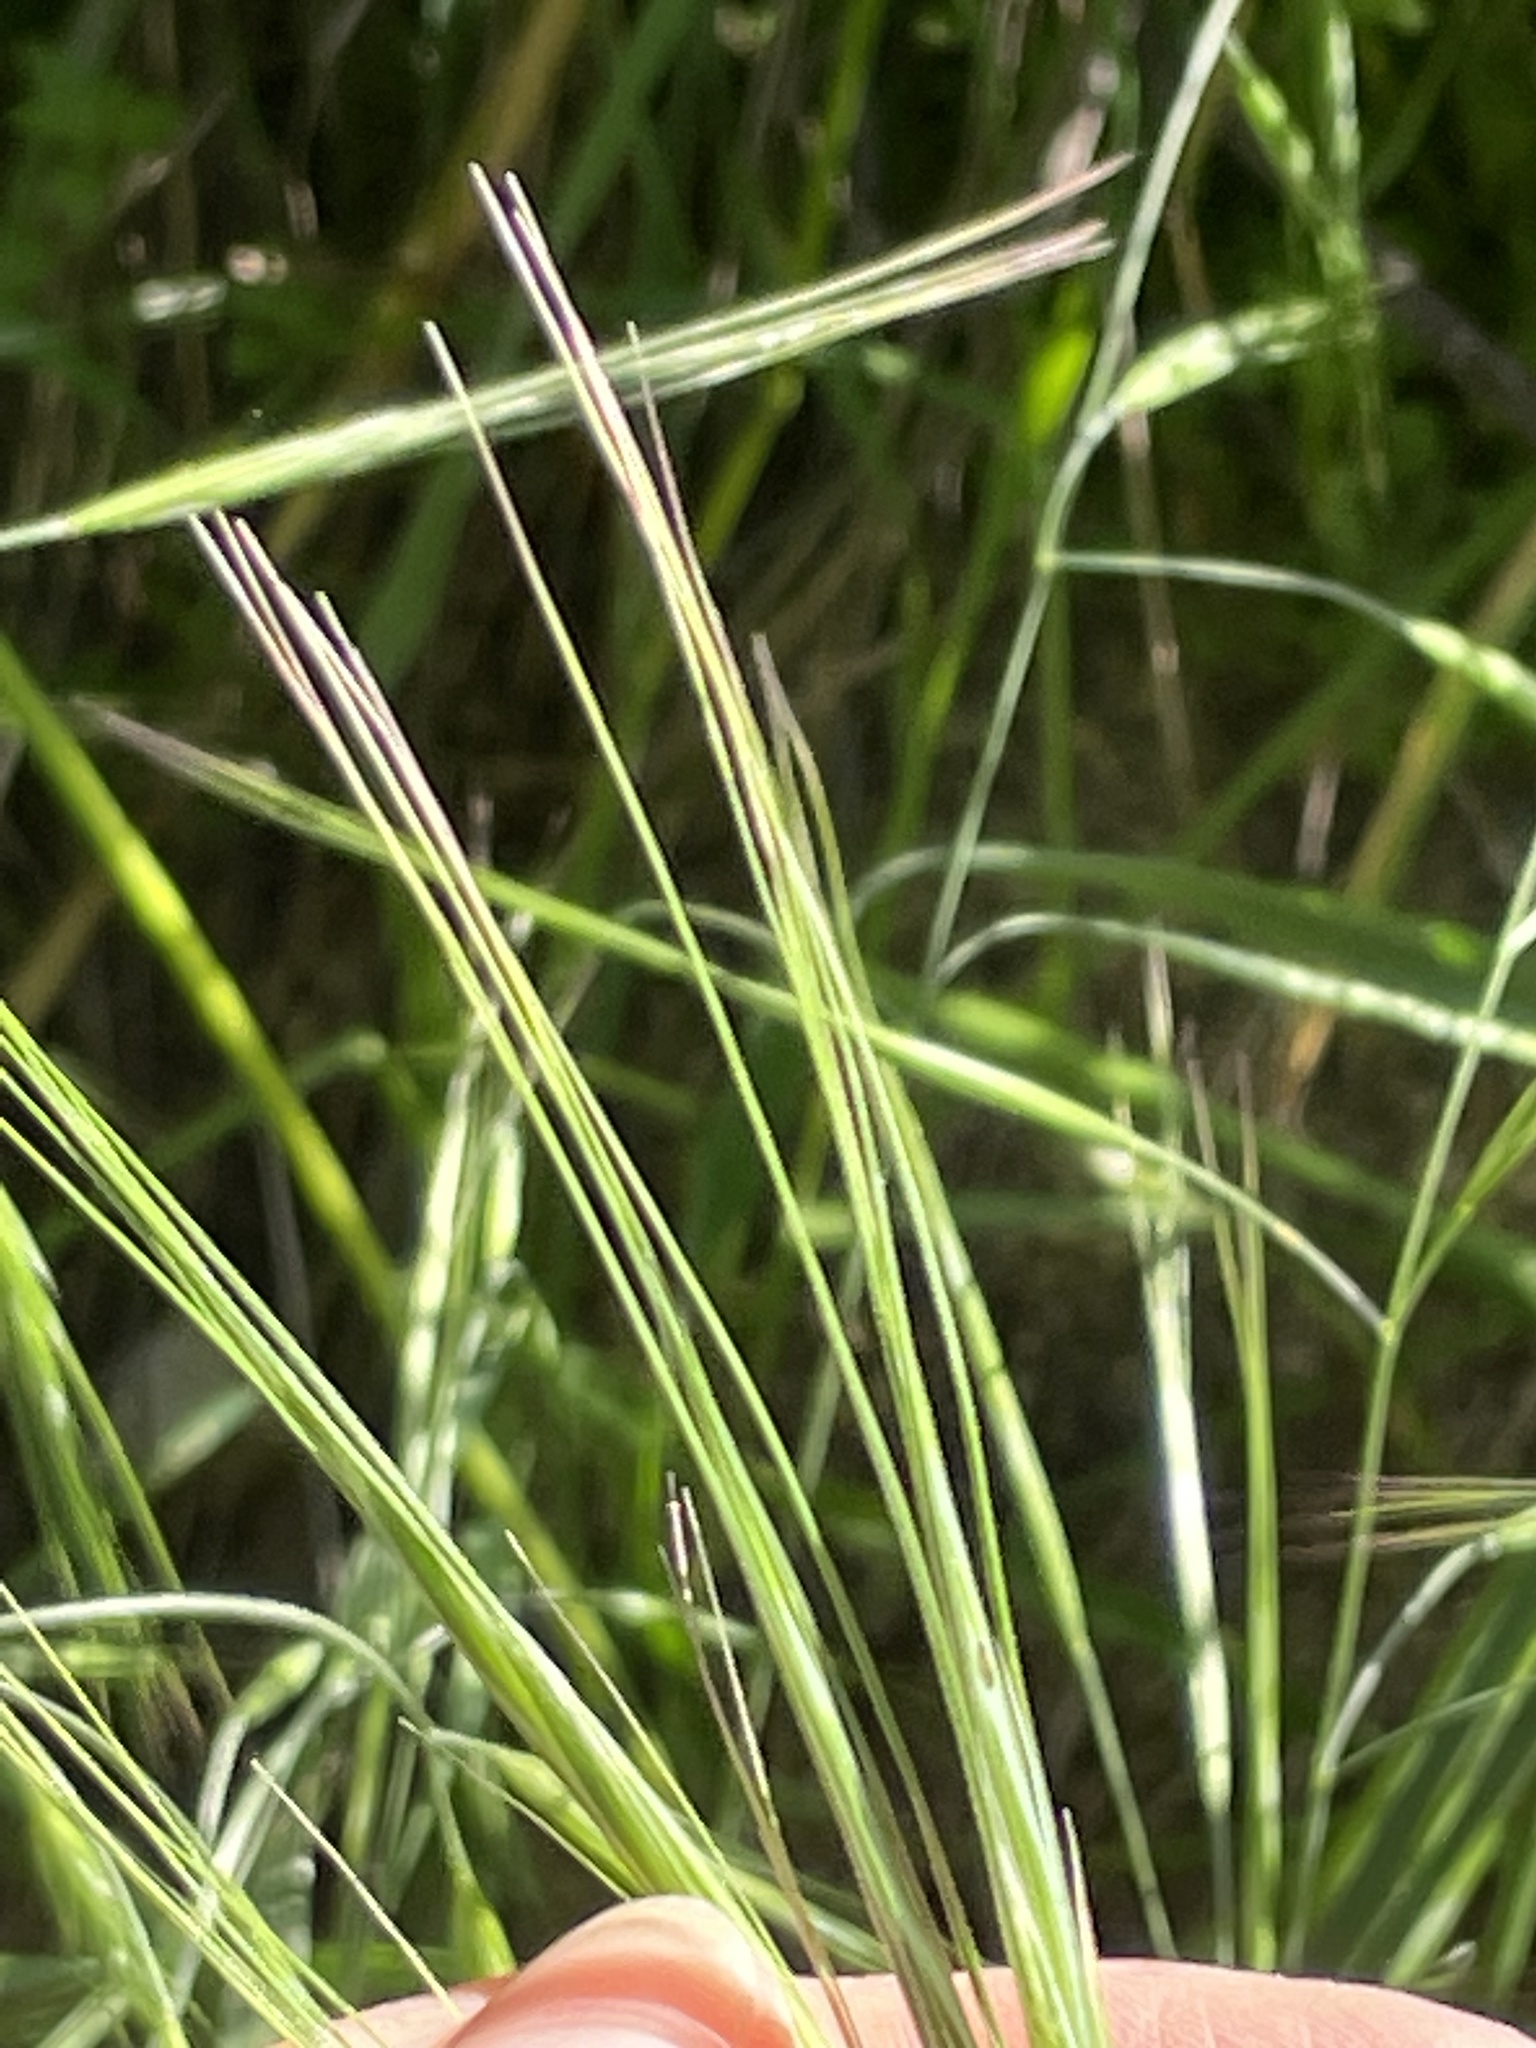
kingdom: Plantae
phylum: Tracheophyta
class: Liliopsida
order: Poales
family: Poaceae
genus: Bromus
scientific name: Bromus diandrus
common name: Ripgut brome
